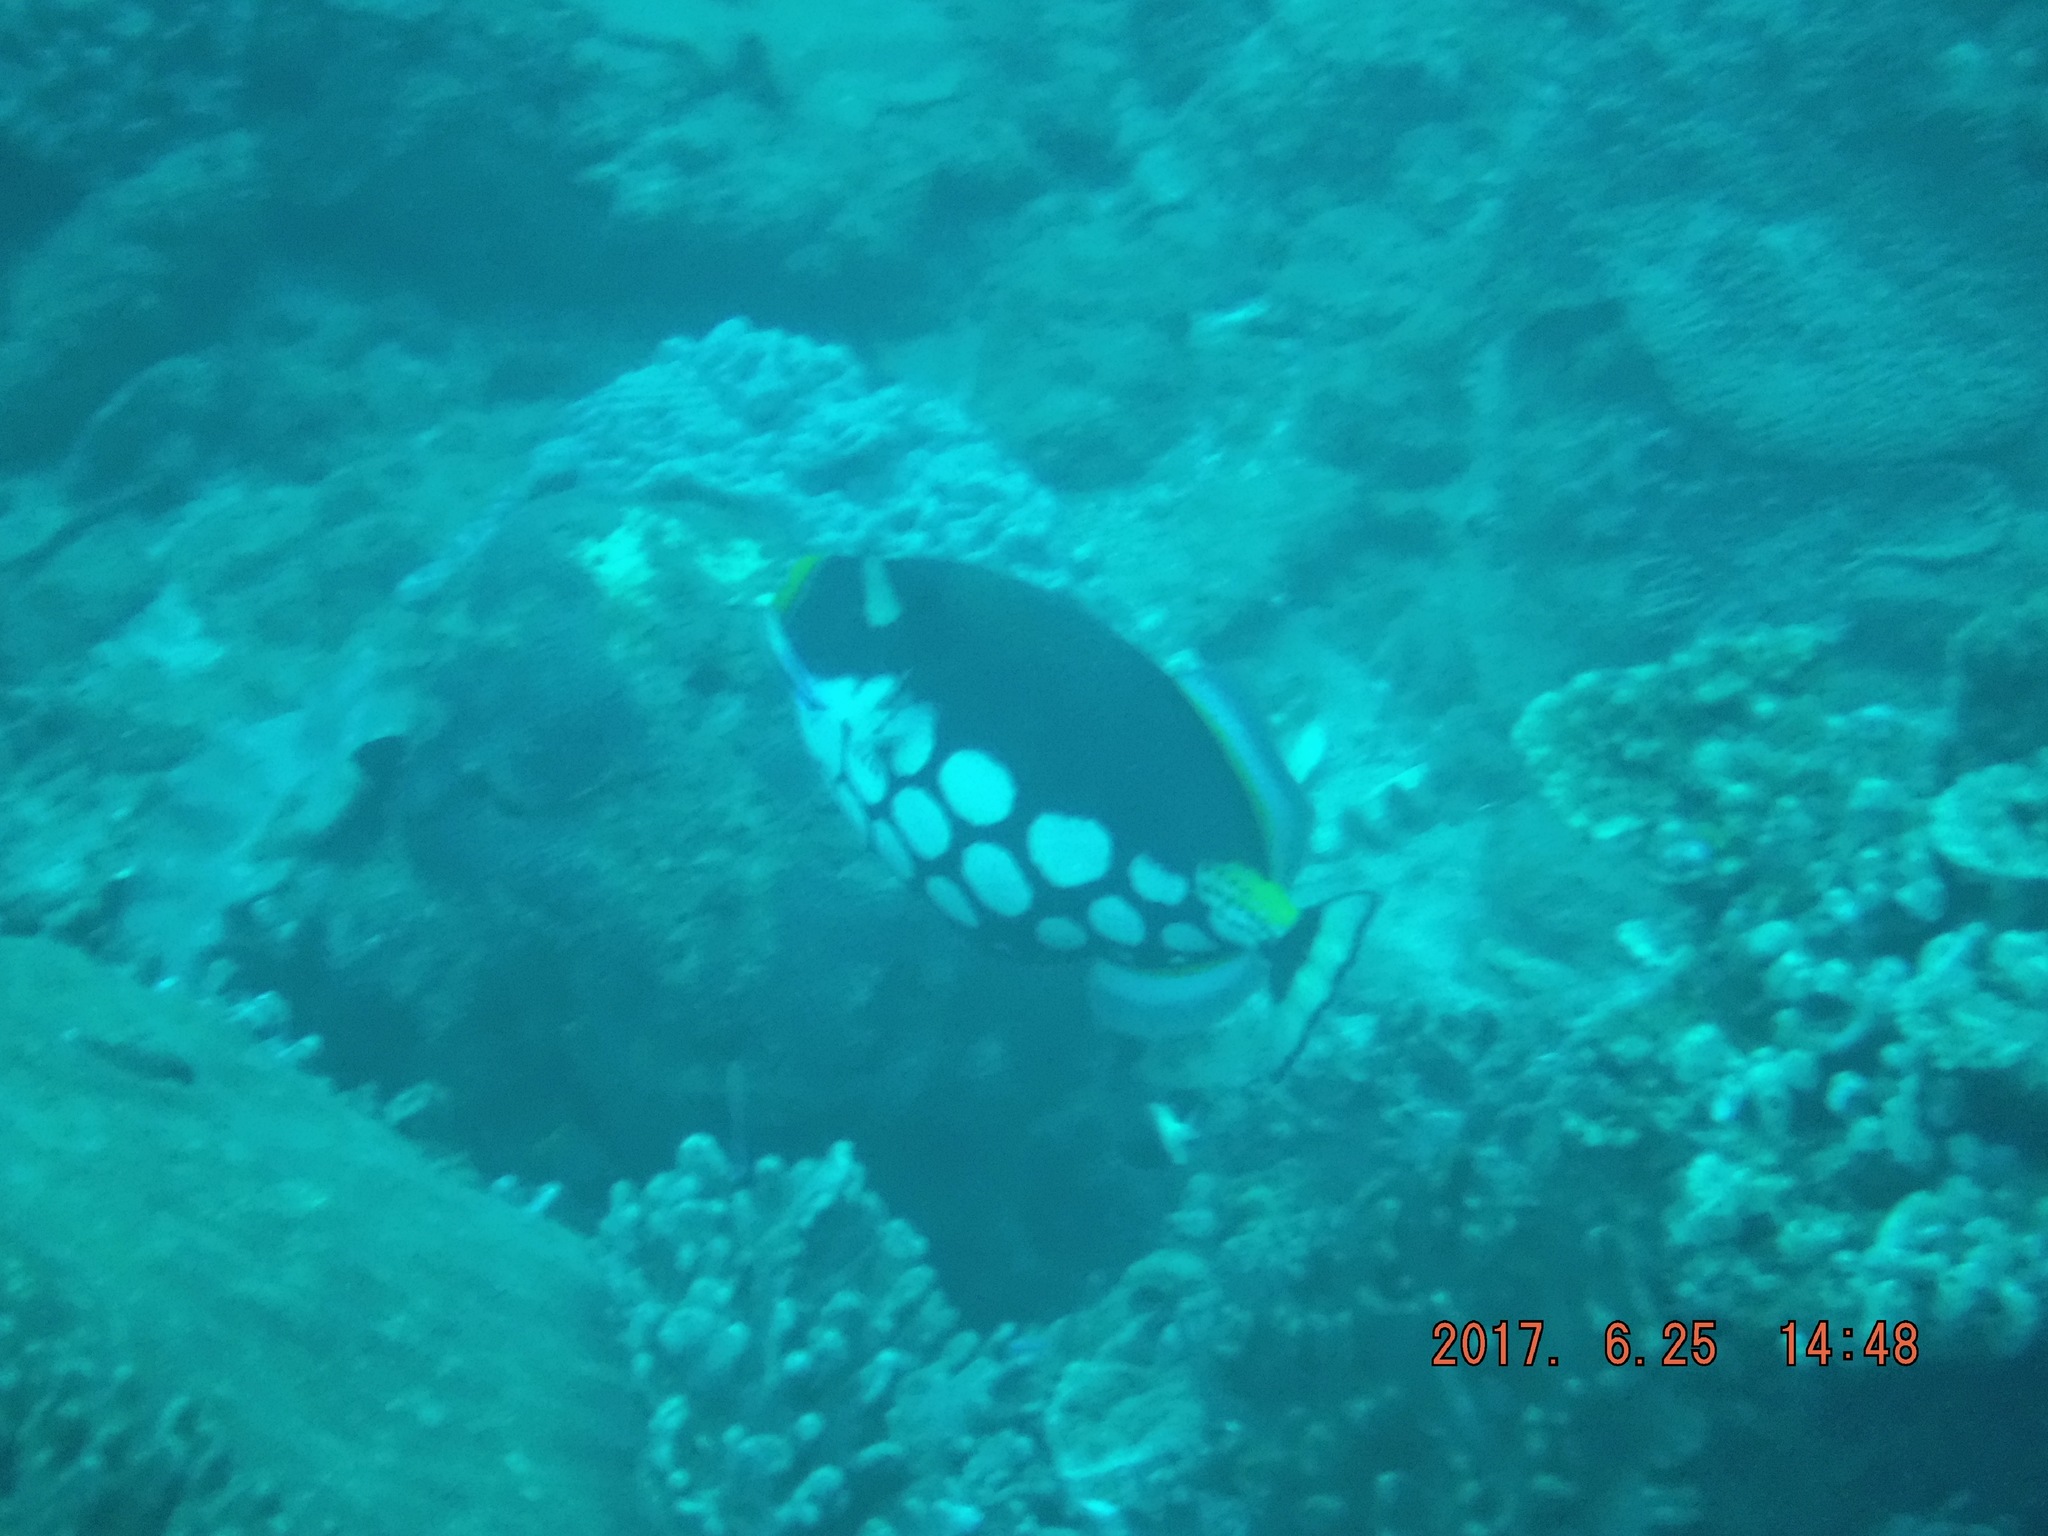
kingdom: Animalia
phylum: Chordata
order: Tetraodontiformes
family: Balistidae
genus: Balistoides
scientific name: Balistoides conspicillum
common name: Clown triggerfish
